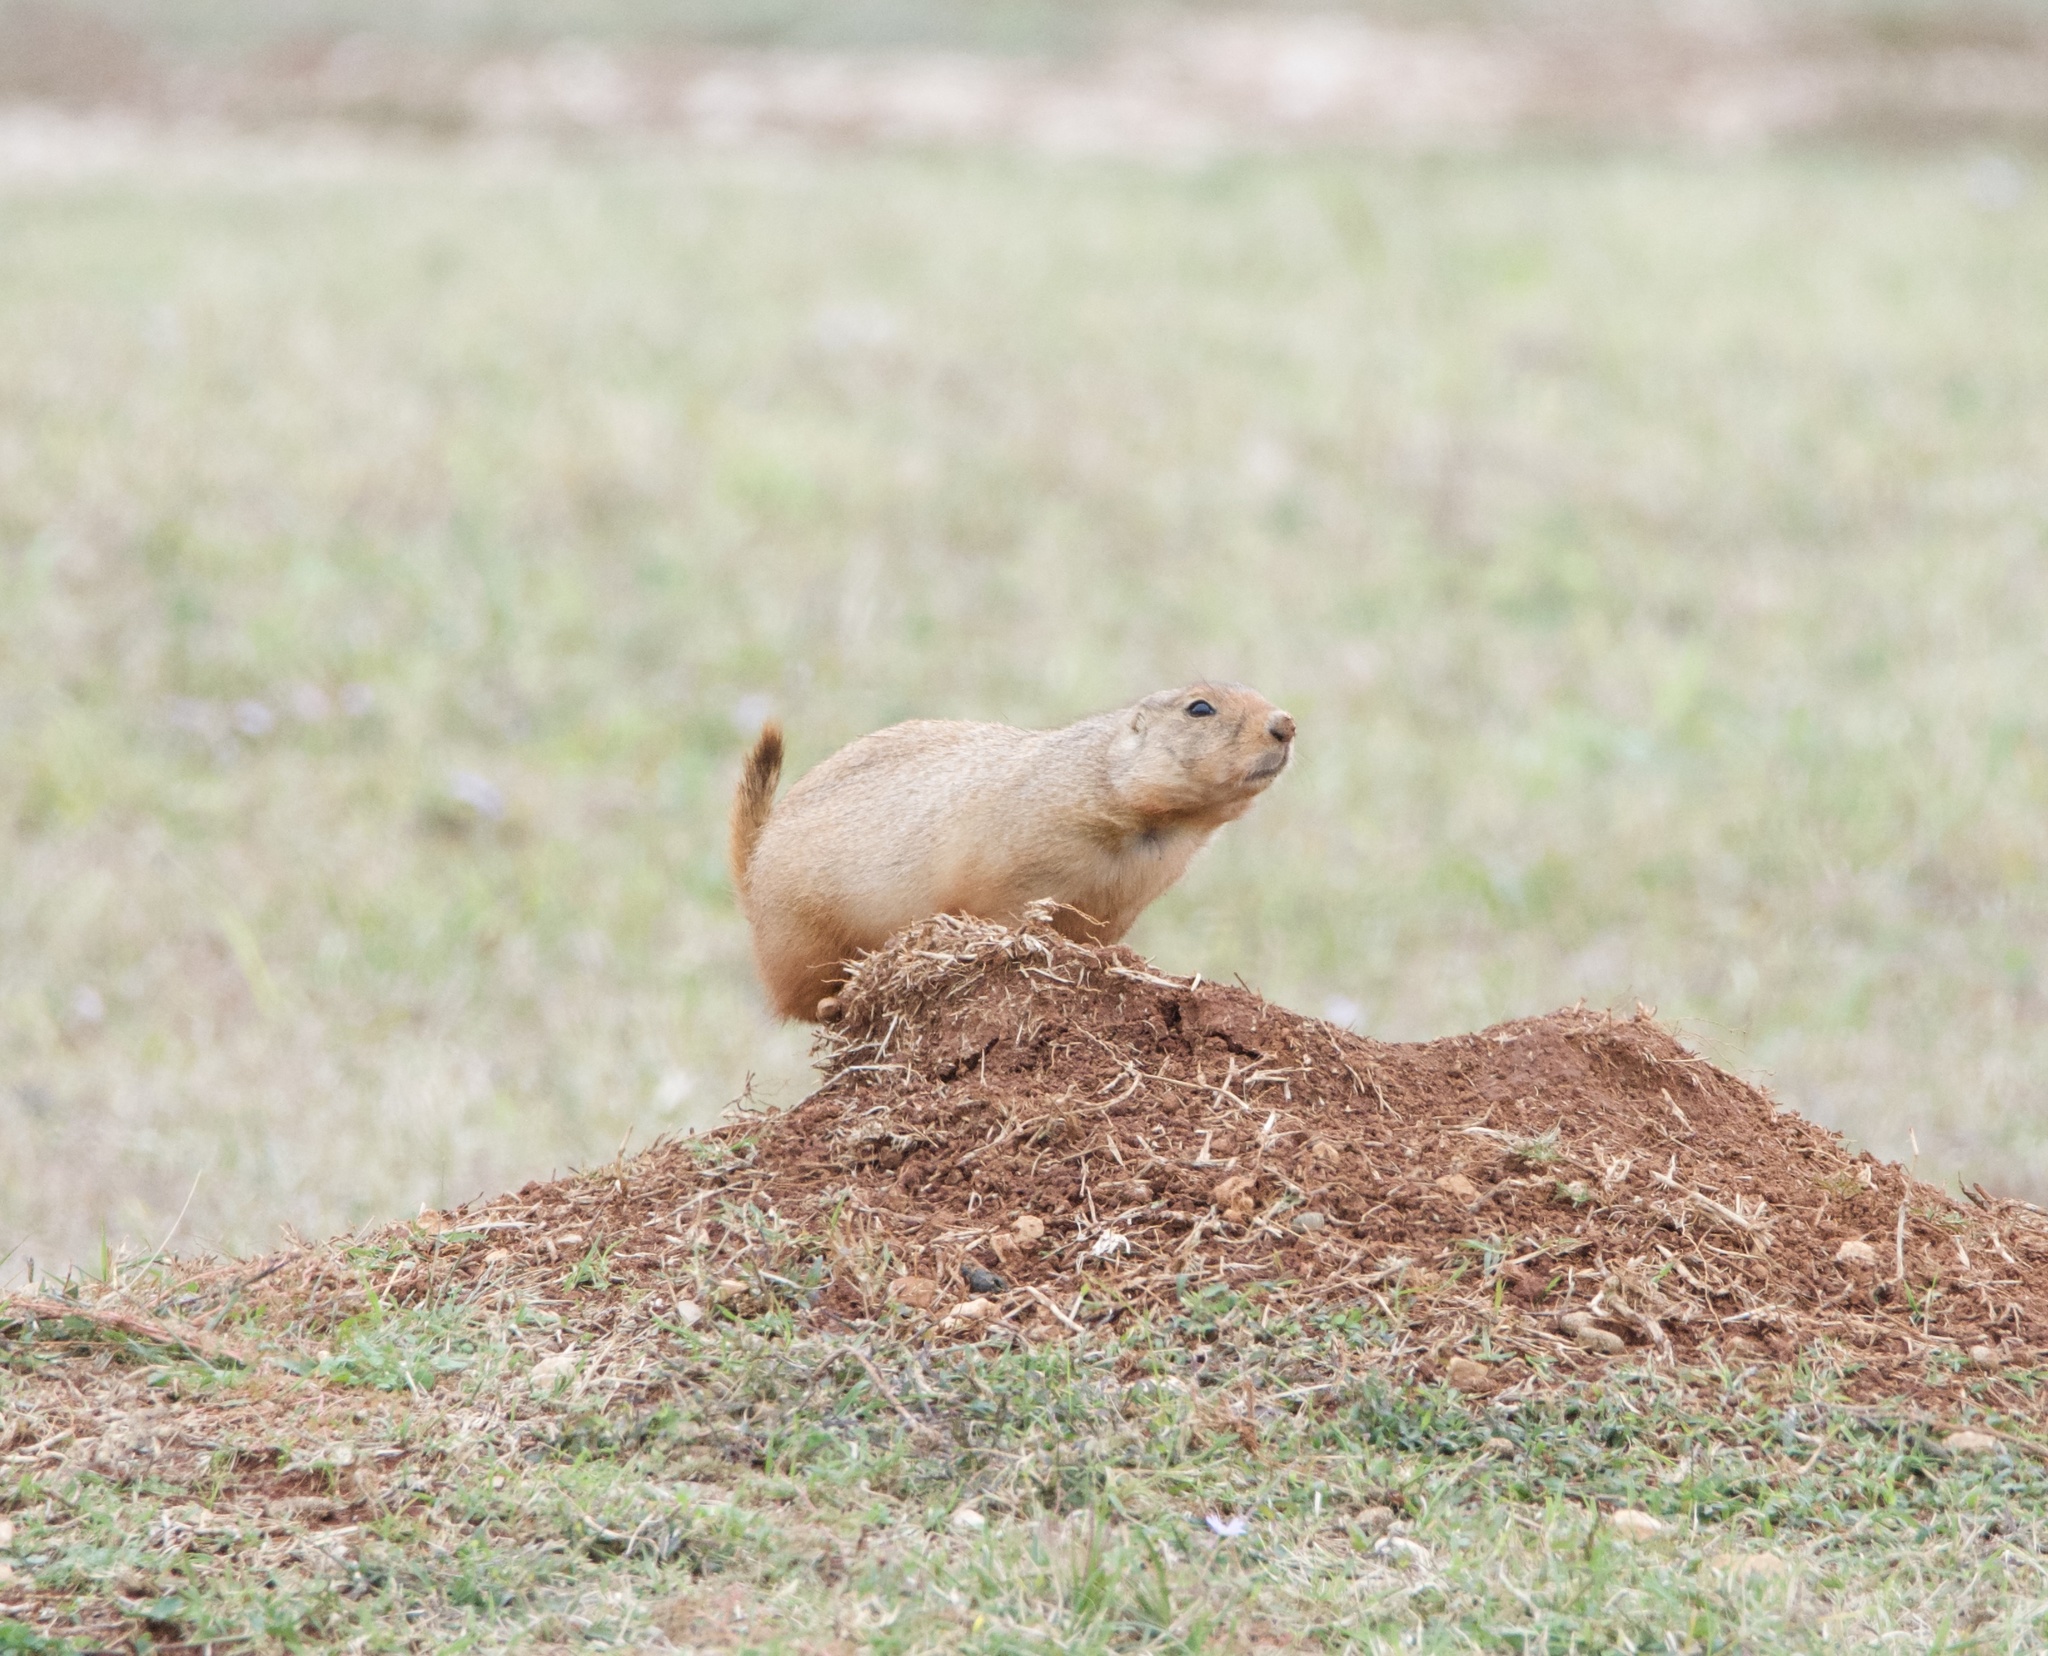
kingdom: Animalia
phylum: Chordata
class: Mammalia
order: Rodentia
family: Sciuridae
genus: Cynomys
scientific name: Cynomys ludovicianus
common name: Black-tailed prairie dog
